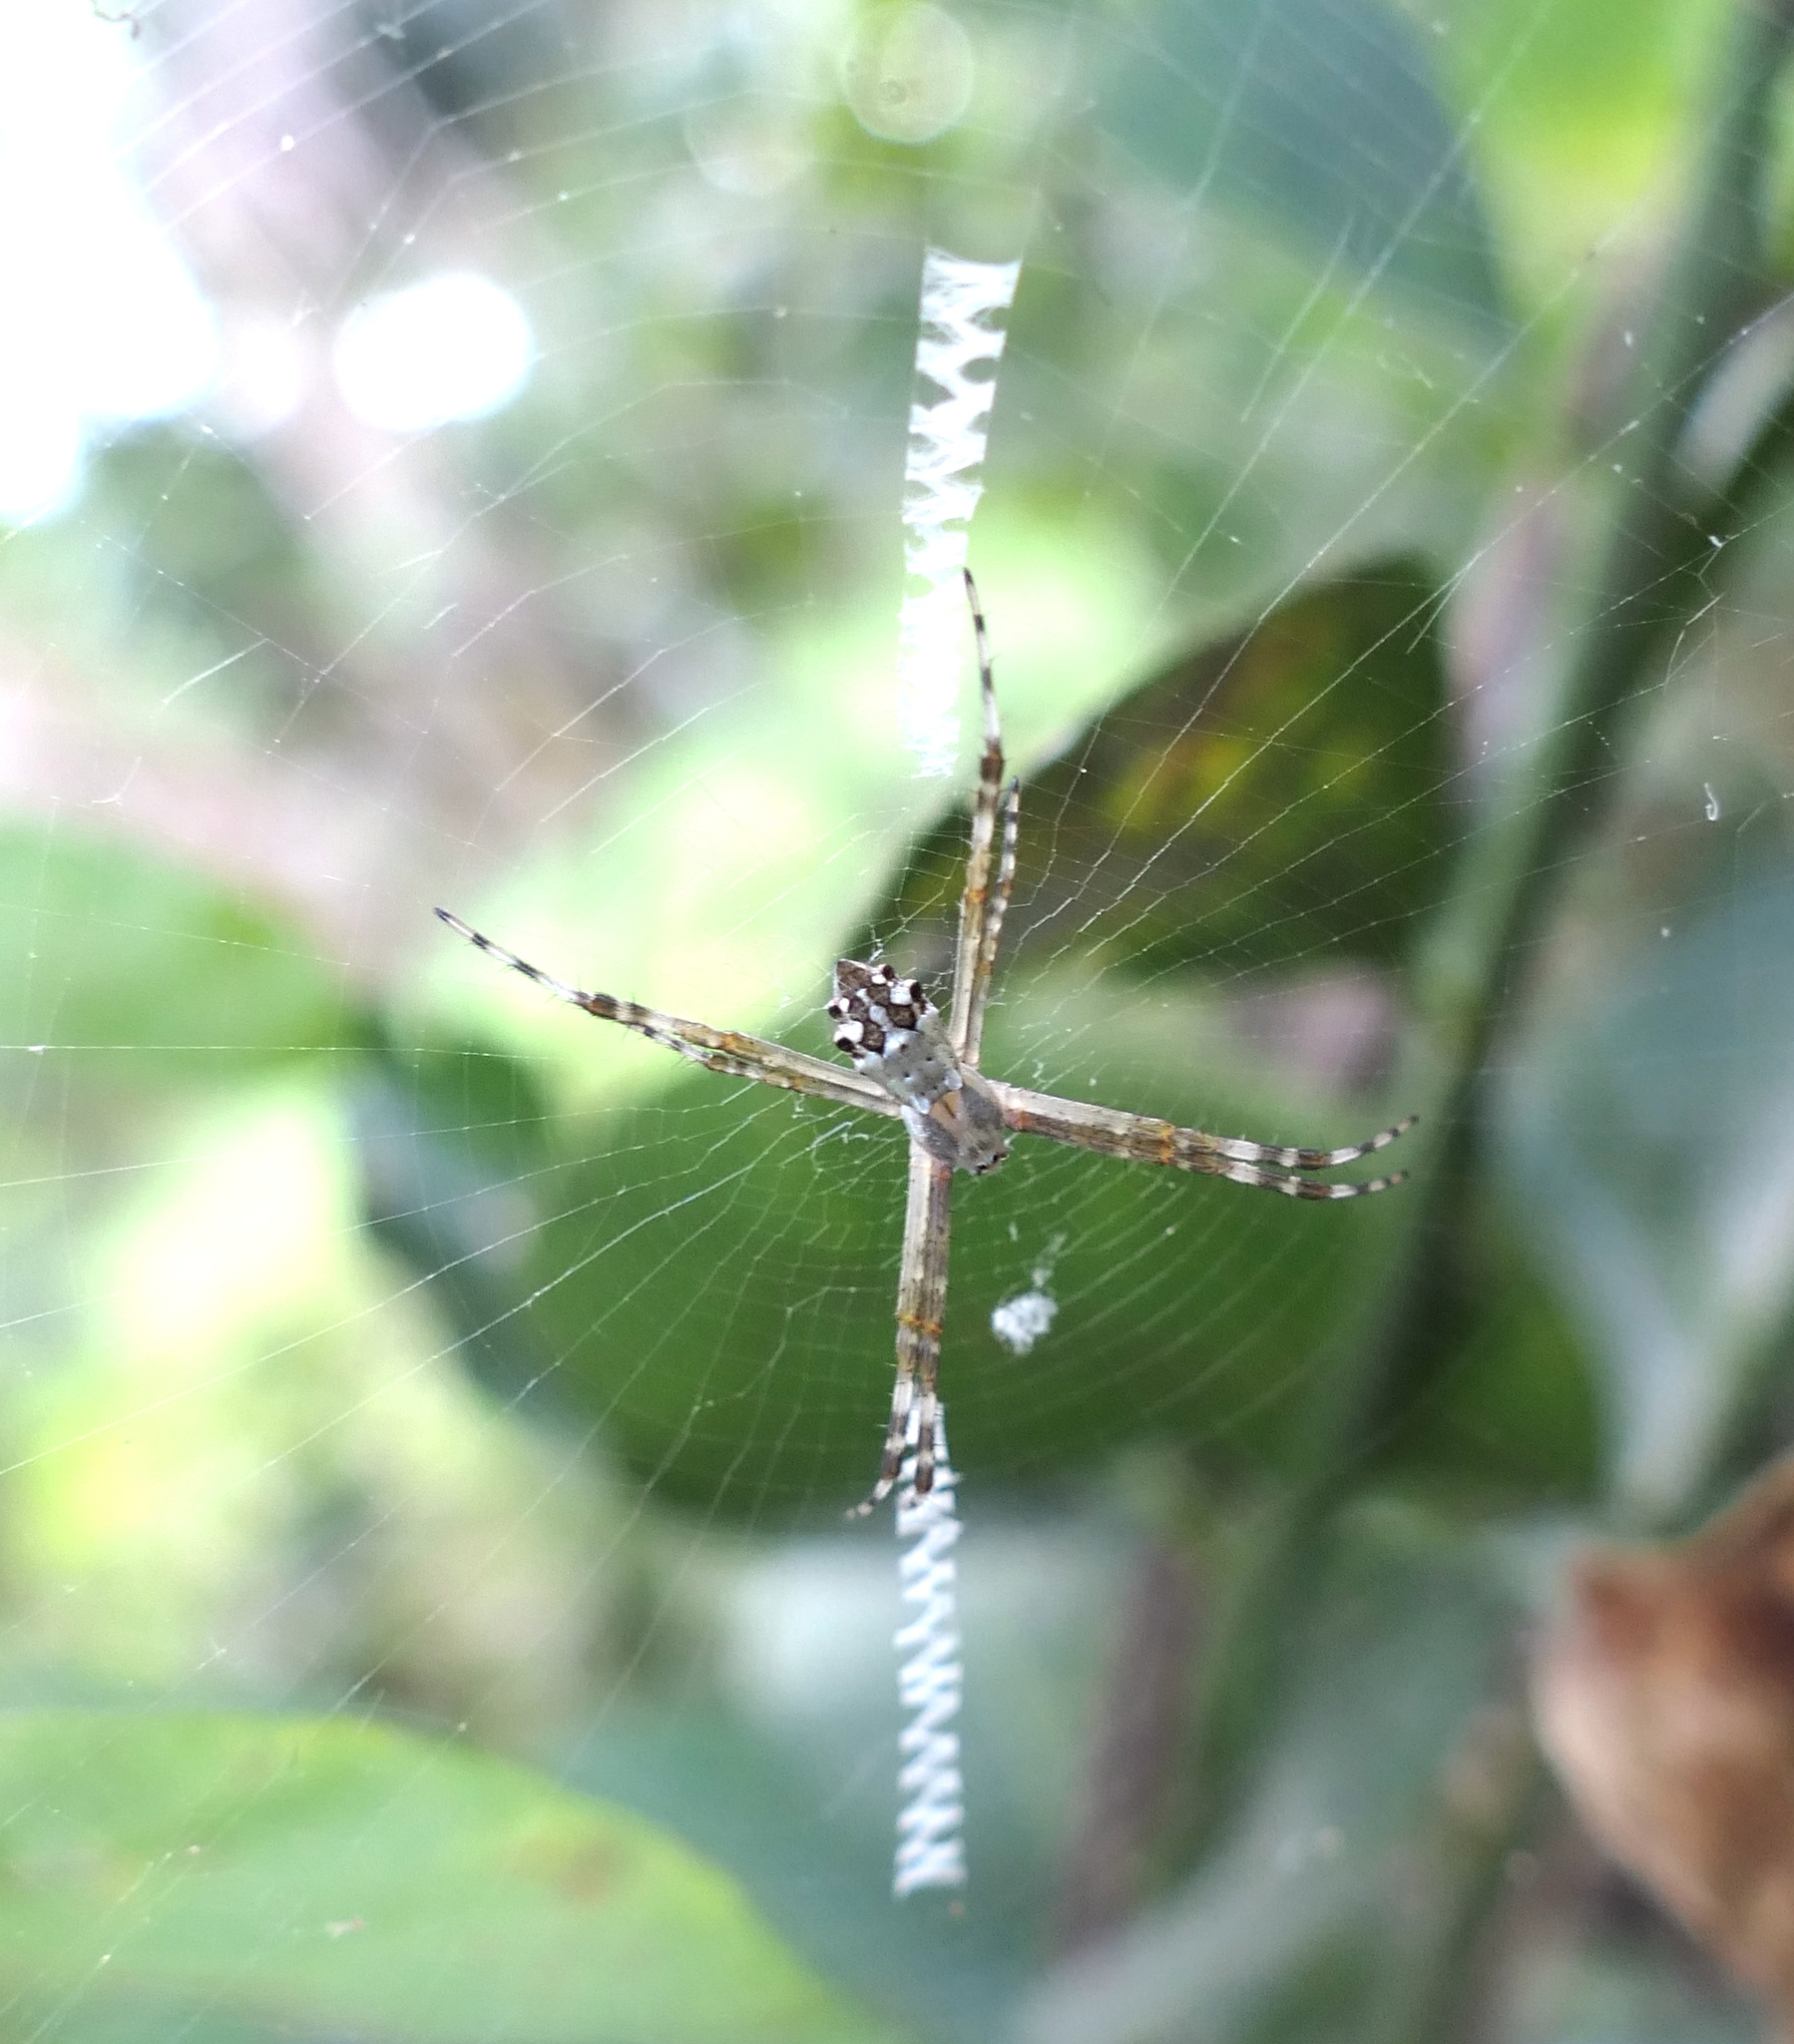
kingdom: Animalia
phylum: Arthropoda
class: Arachnida
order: Araneae
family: Araneidae
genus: Argiope
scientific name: Argiope argentata
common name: Orb weavers
